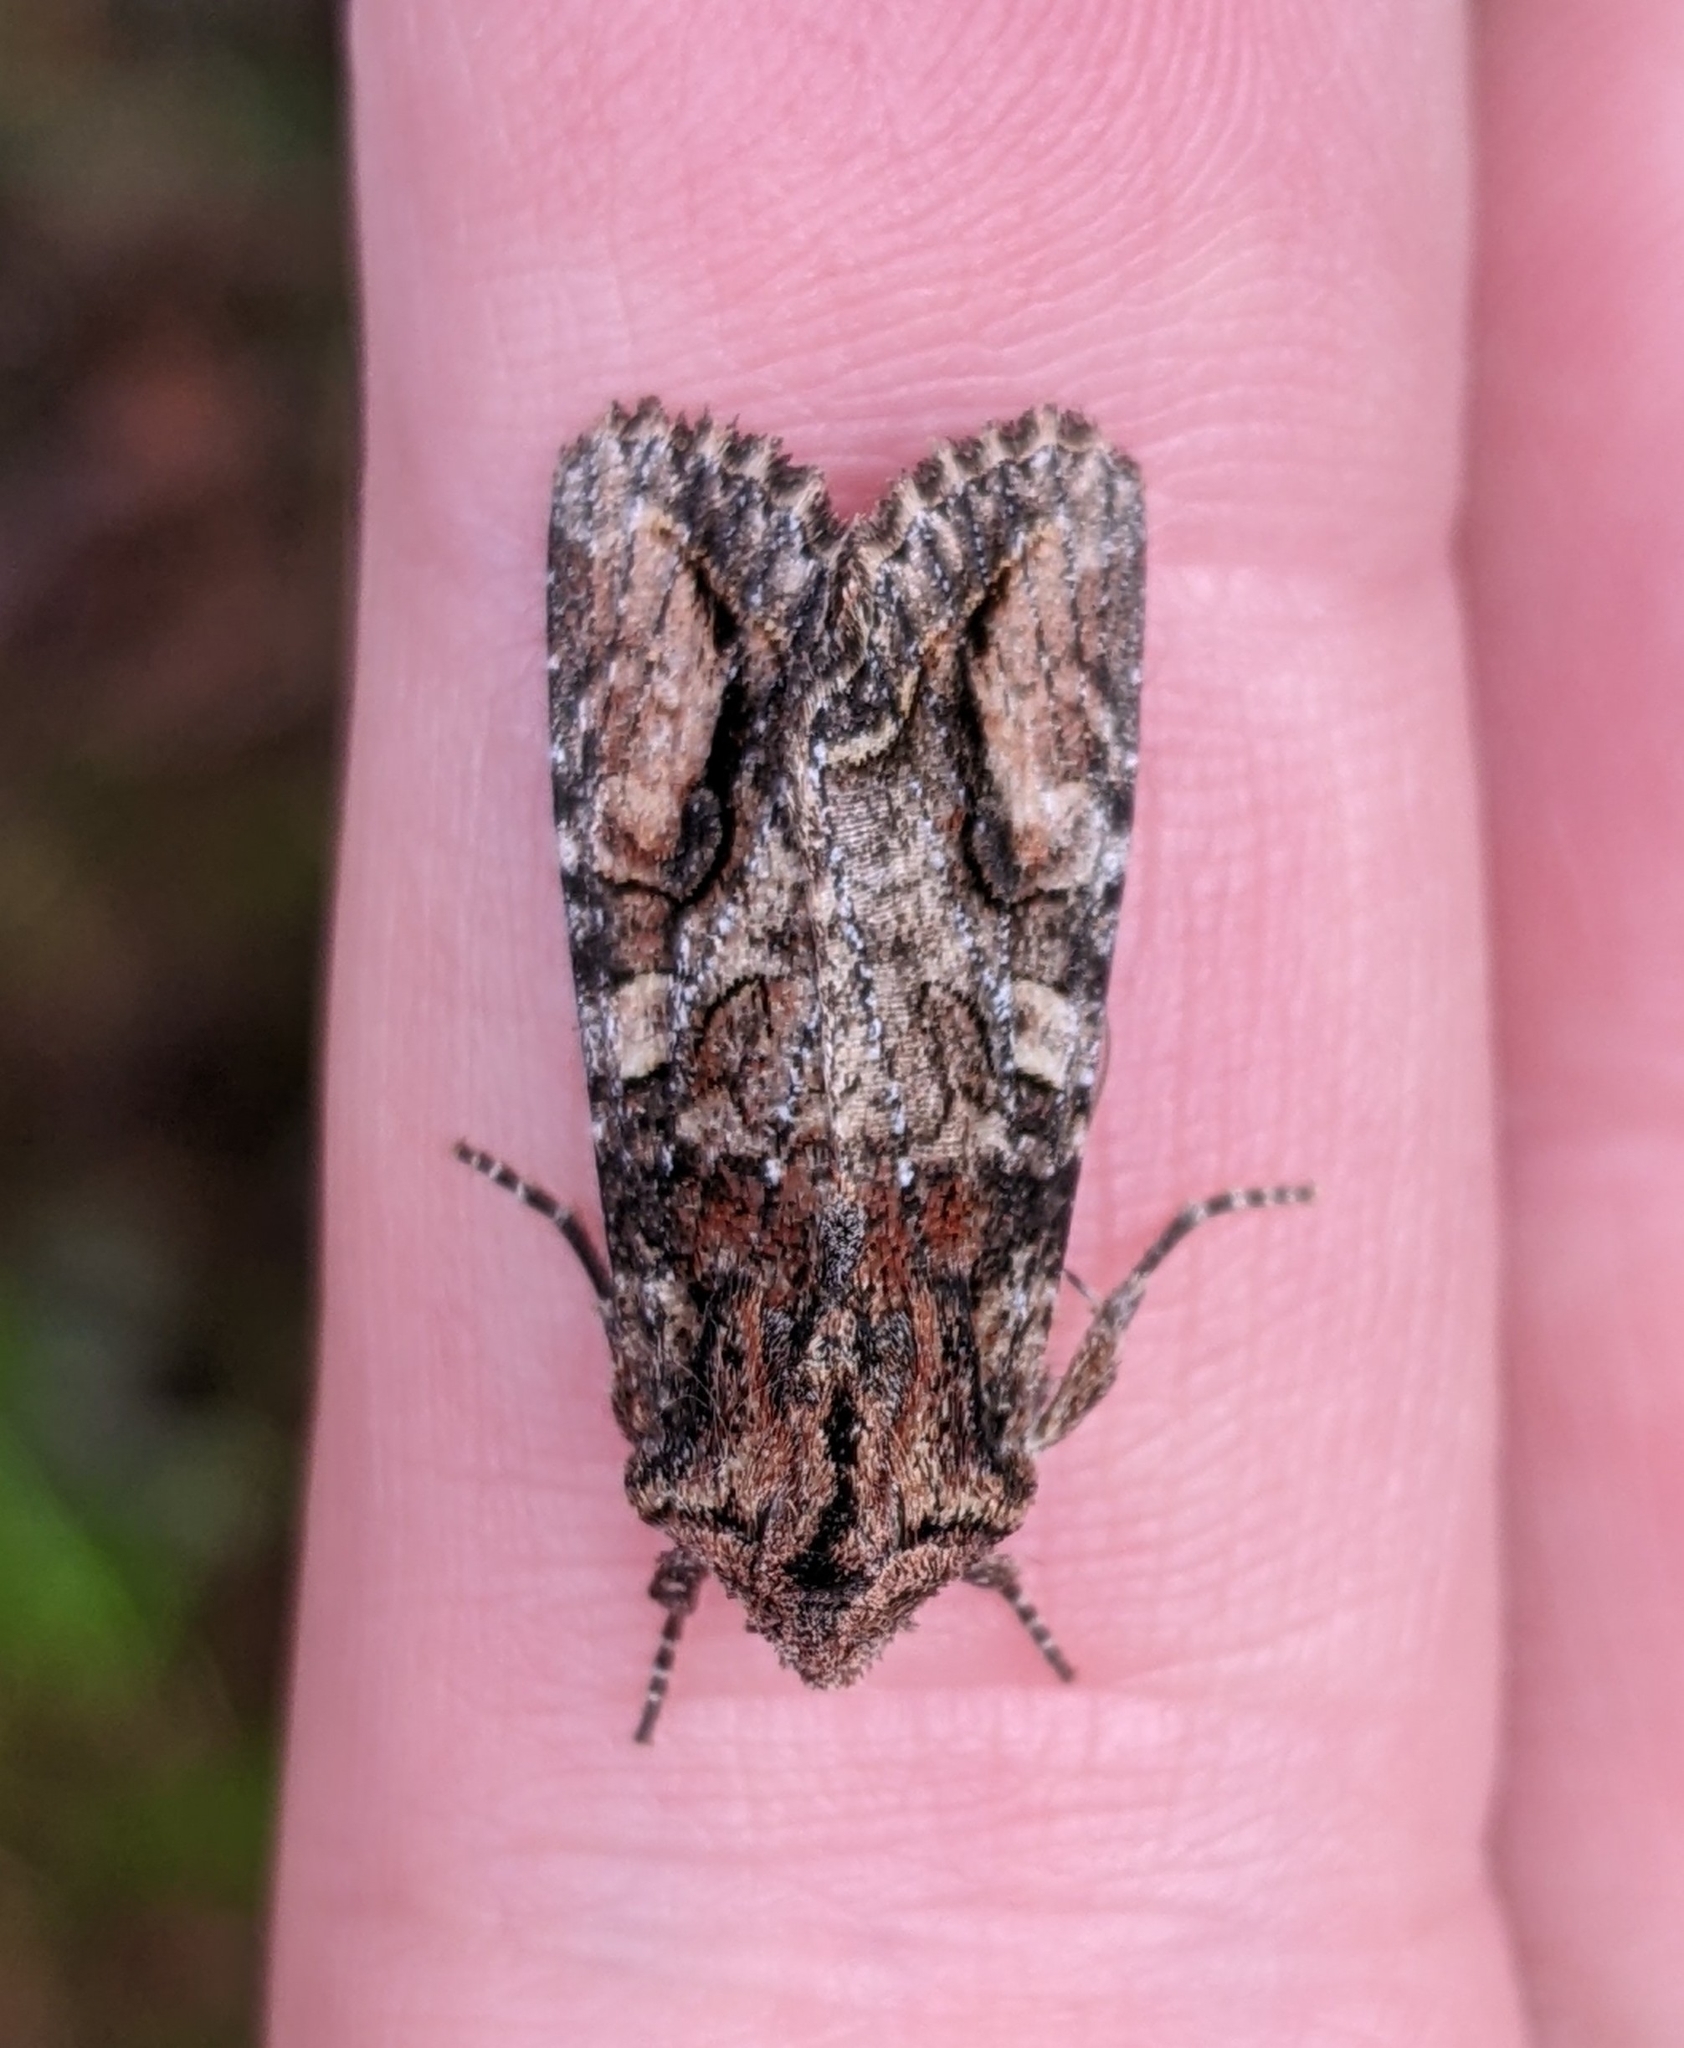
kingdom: Animalia
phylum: Arthropoda
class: Insecta
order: Lepidoptera
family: Noctuidae
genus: Egira
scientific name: Egira perlubens
